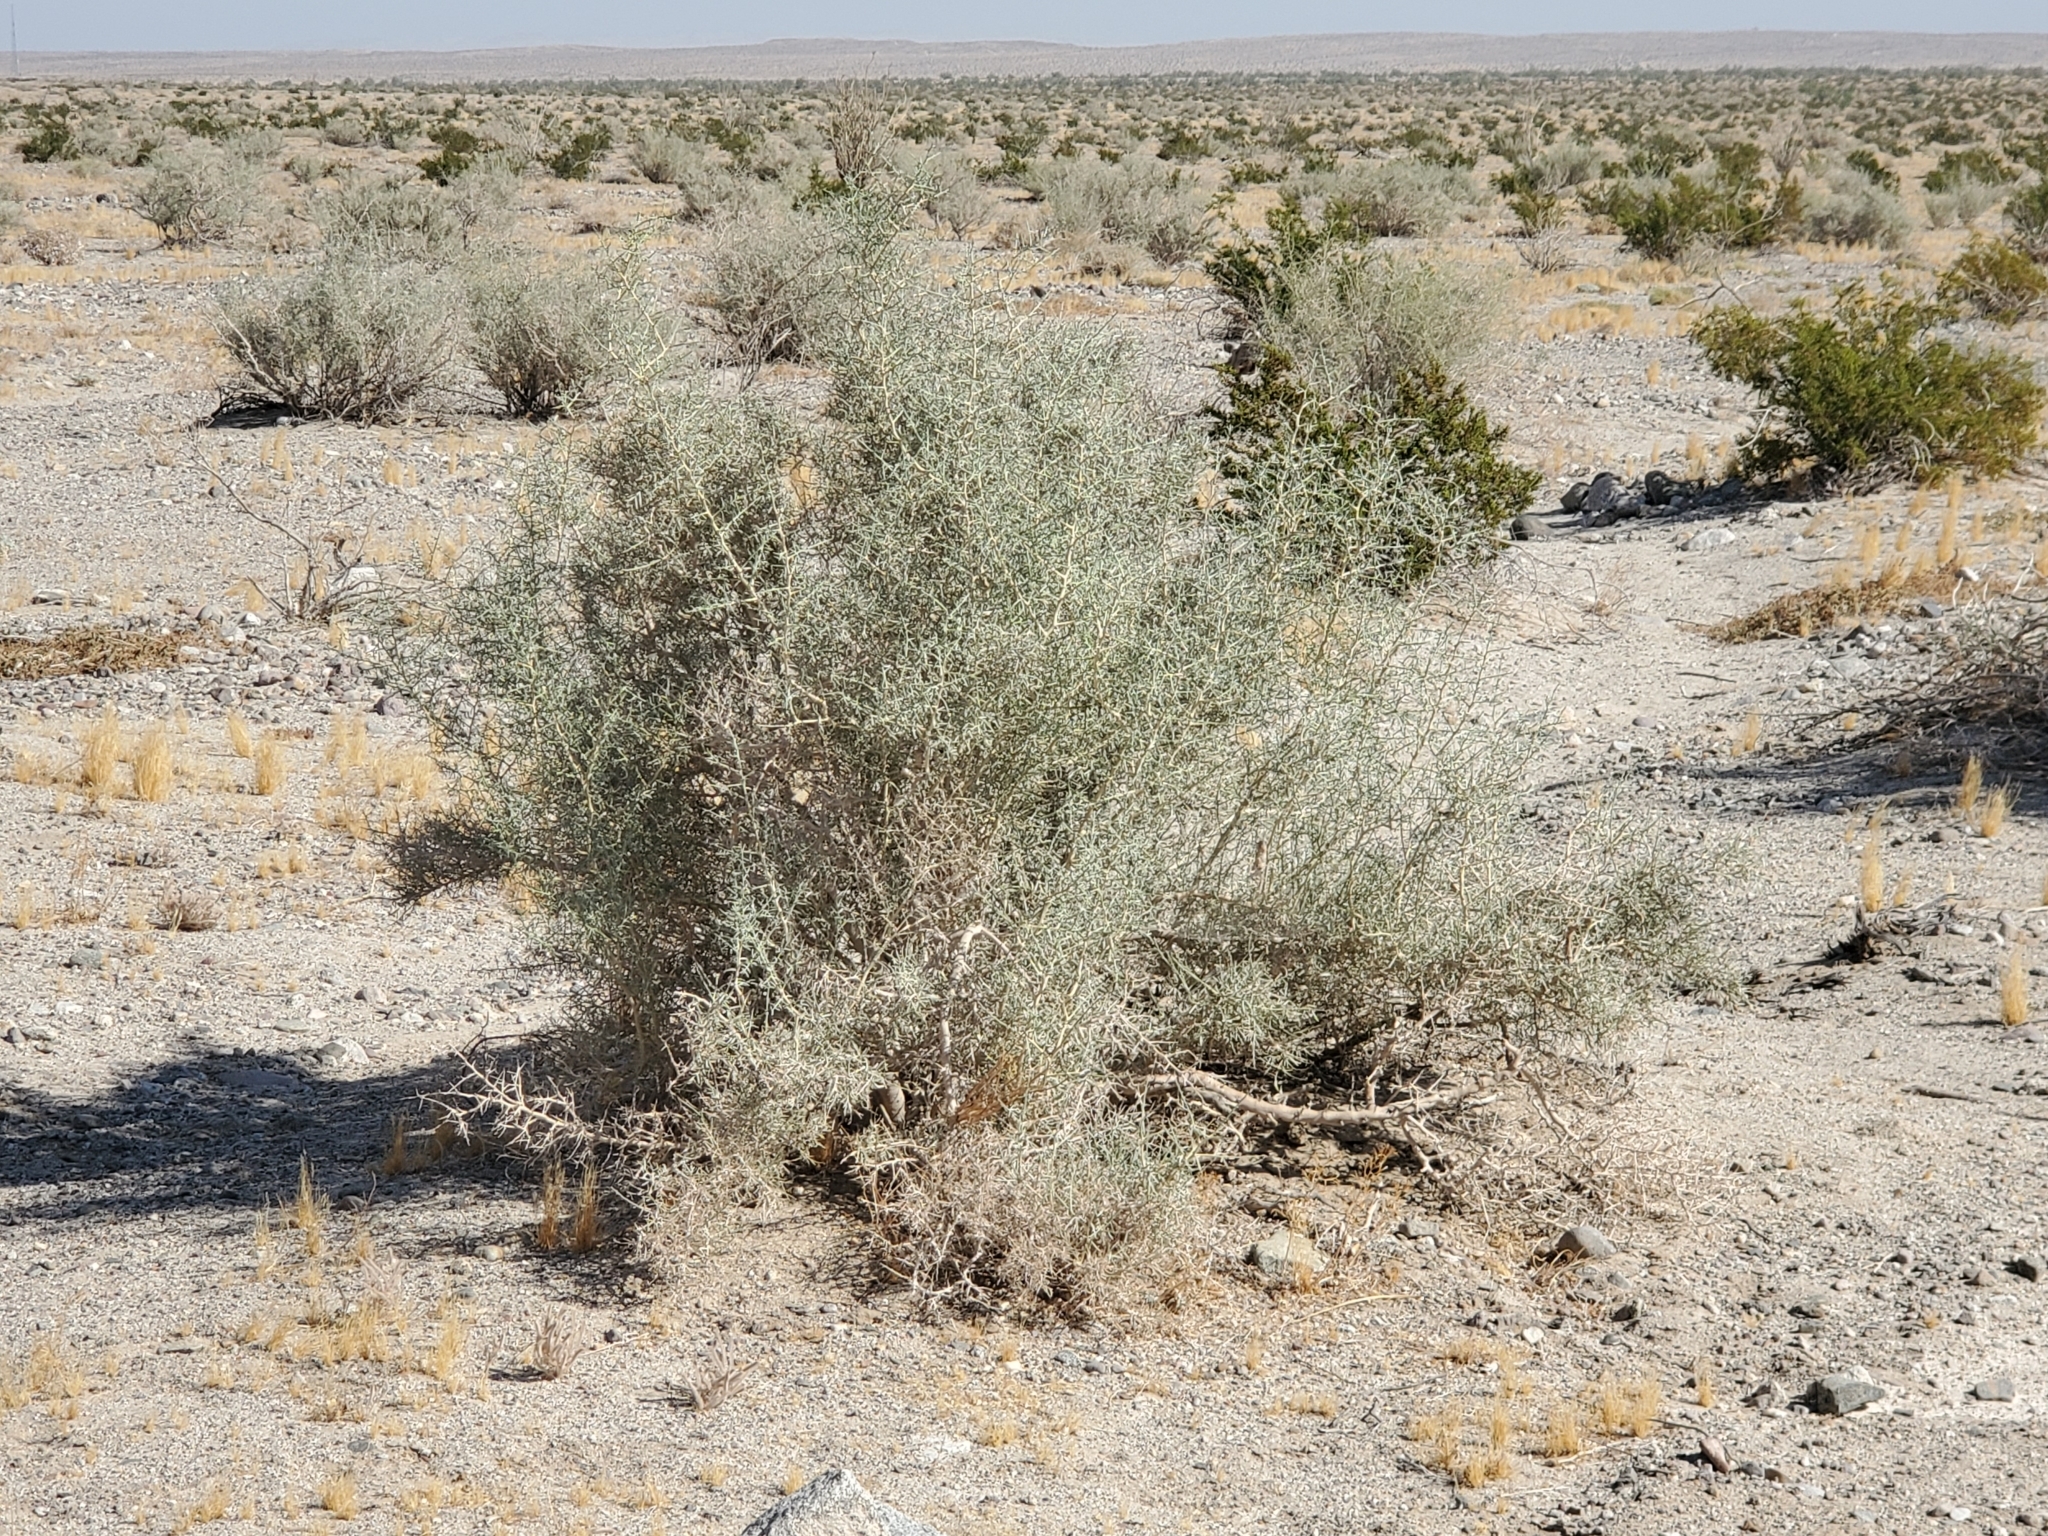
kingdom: Plantae
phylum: Tracheophyta
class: Magnoliopsida
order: Fabales
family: Fabaceae
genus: Psorothamnus
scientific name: Psorothamnus schottii
